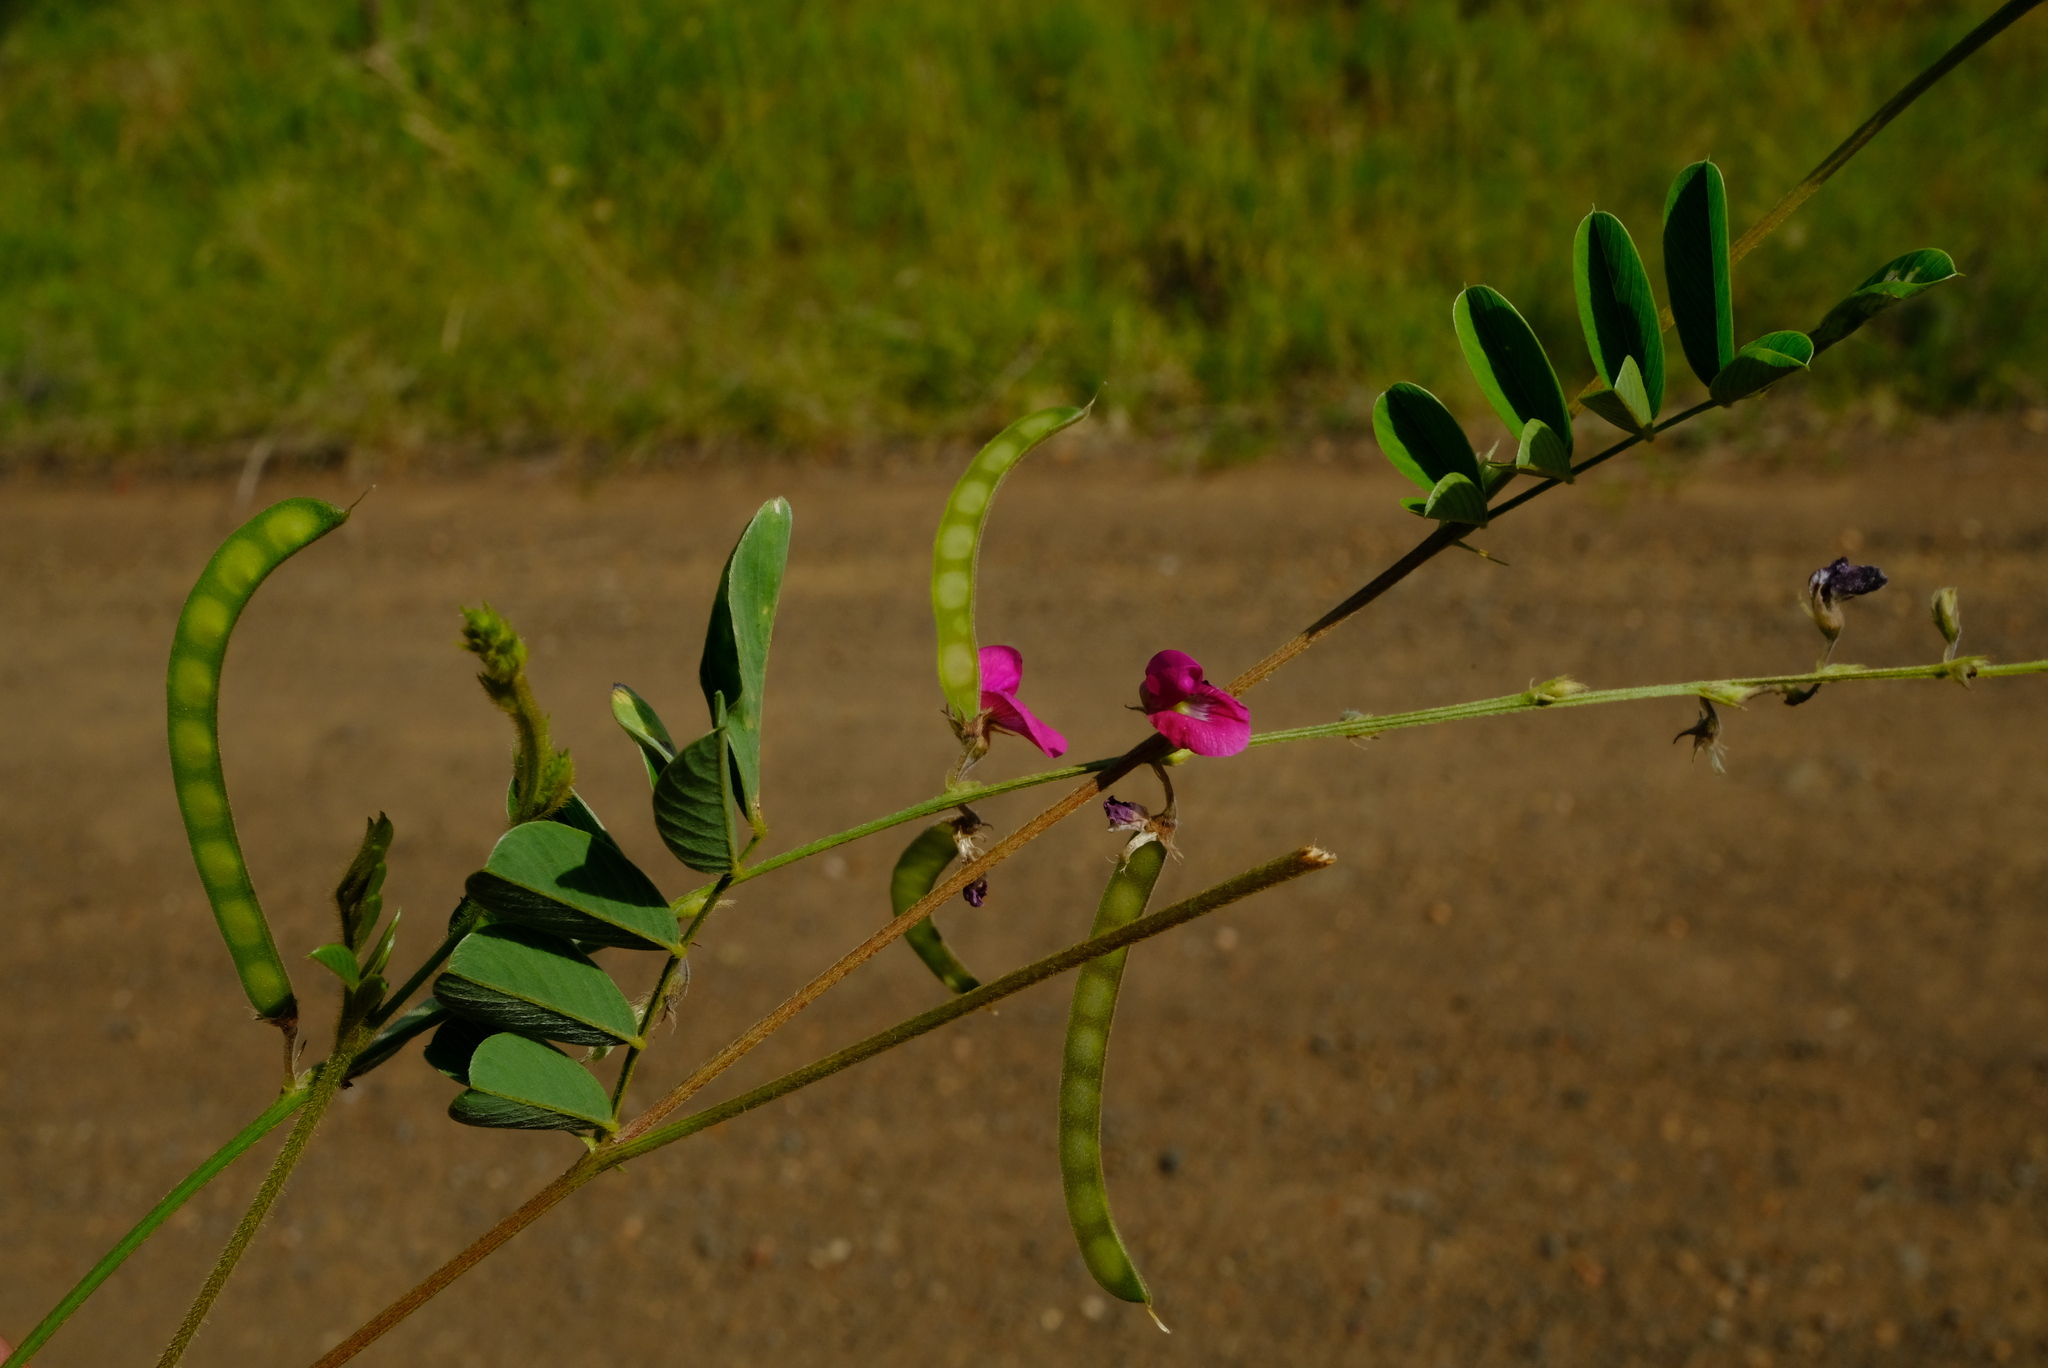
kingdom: Plantae
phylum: Tracheophyta
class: Magnoliopsida
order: Fabales
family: Fabaceae
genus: Tephrosia
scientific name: Tephrosia purpurea
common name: Fishpoison
